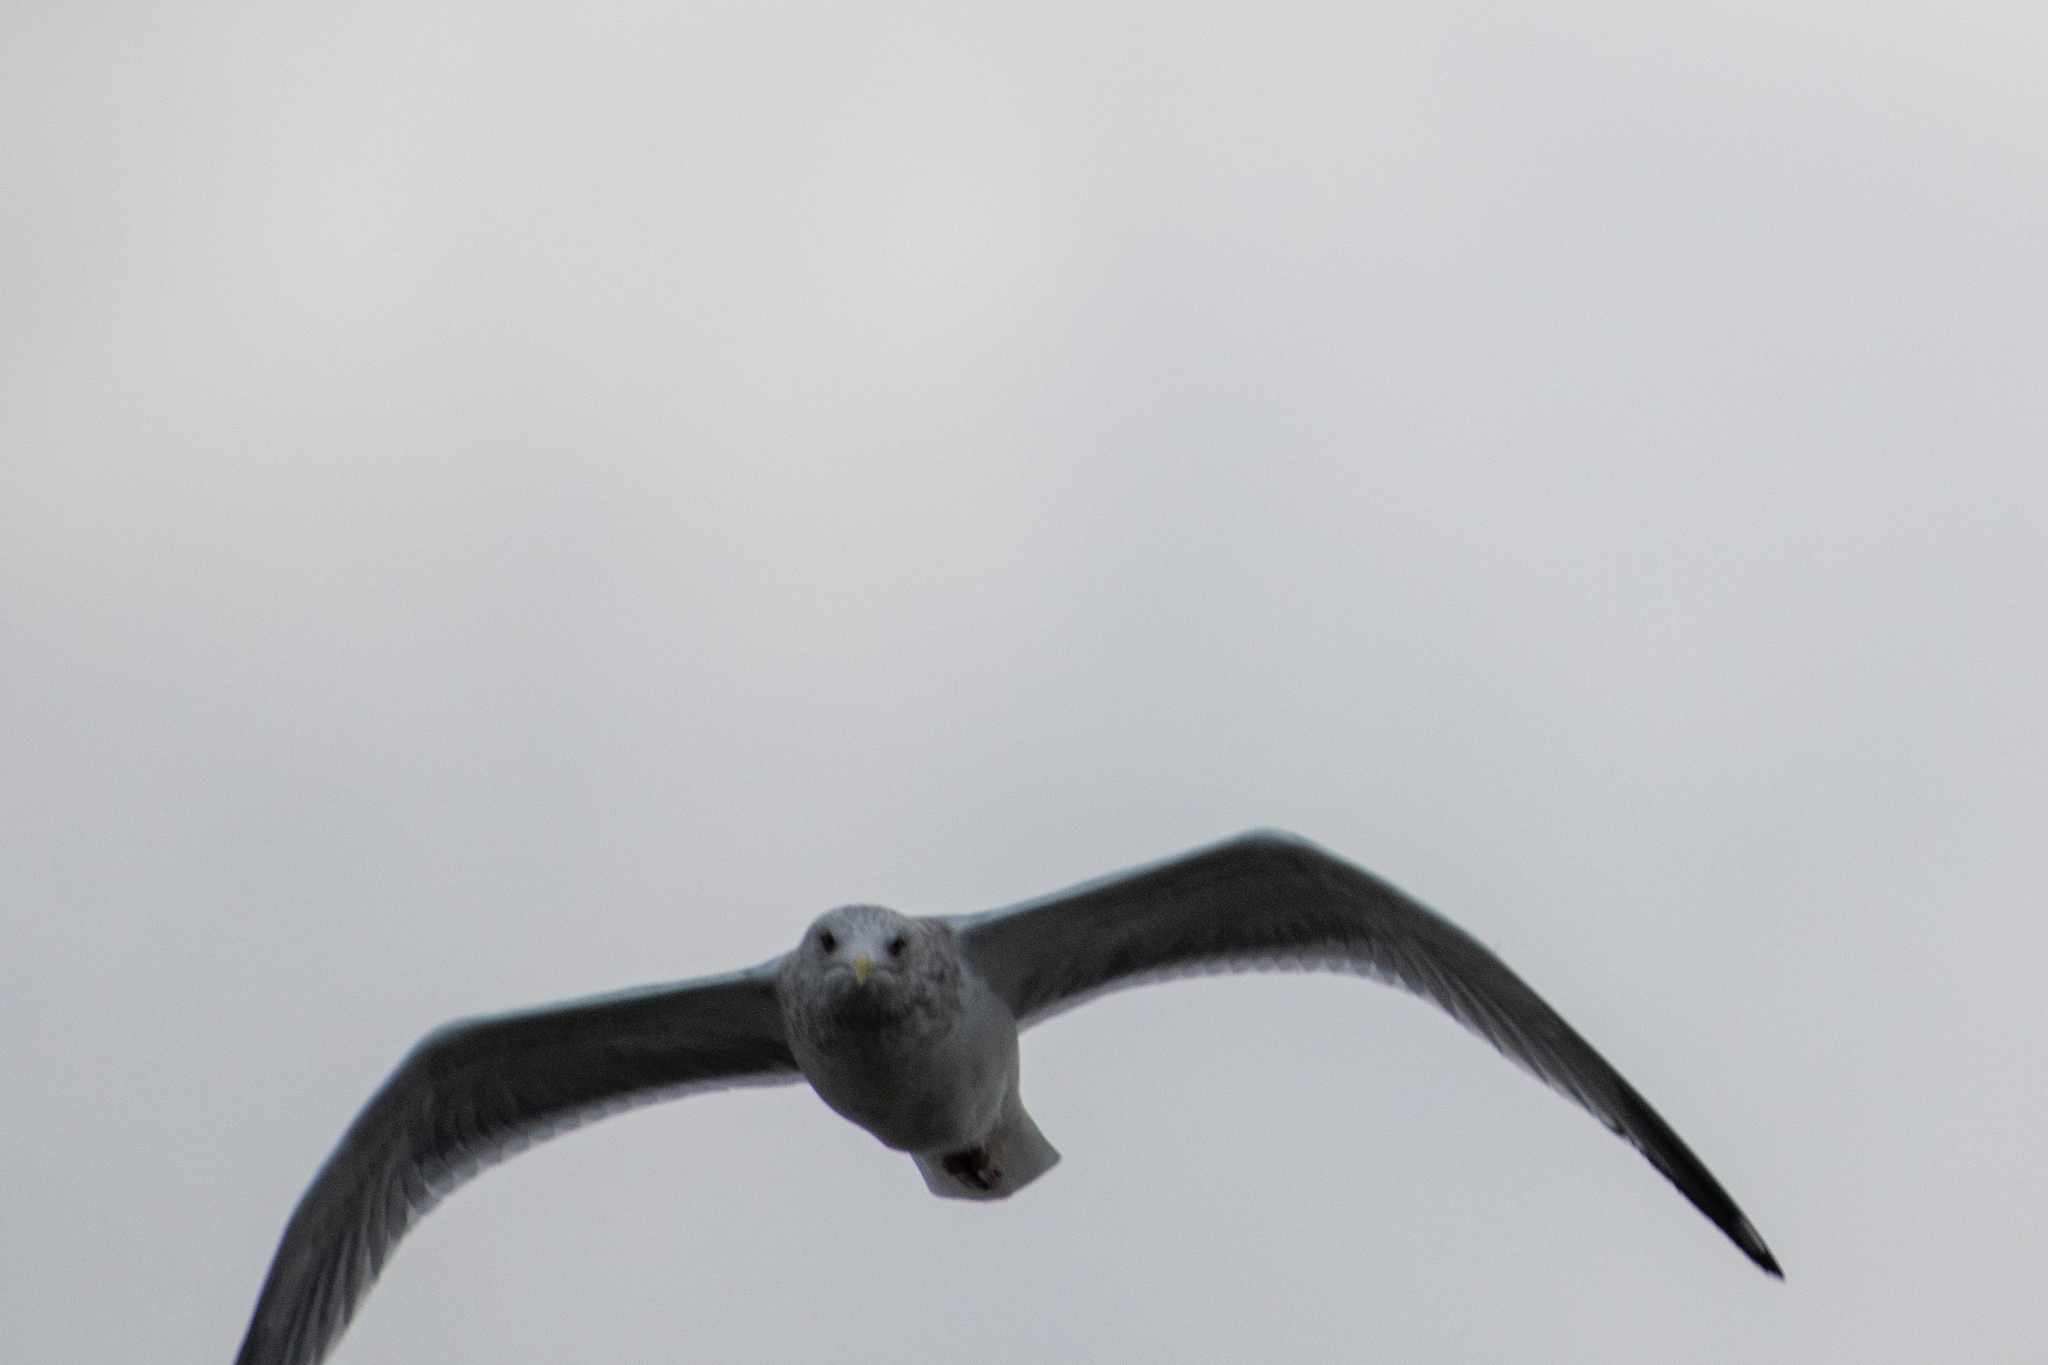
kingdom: Animalia
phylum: Chordata
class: Aves
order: Charadriiformes
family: Laridae
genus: Larus
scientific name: Larus argentatus
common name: Herring gull
